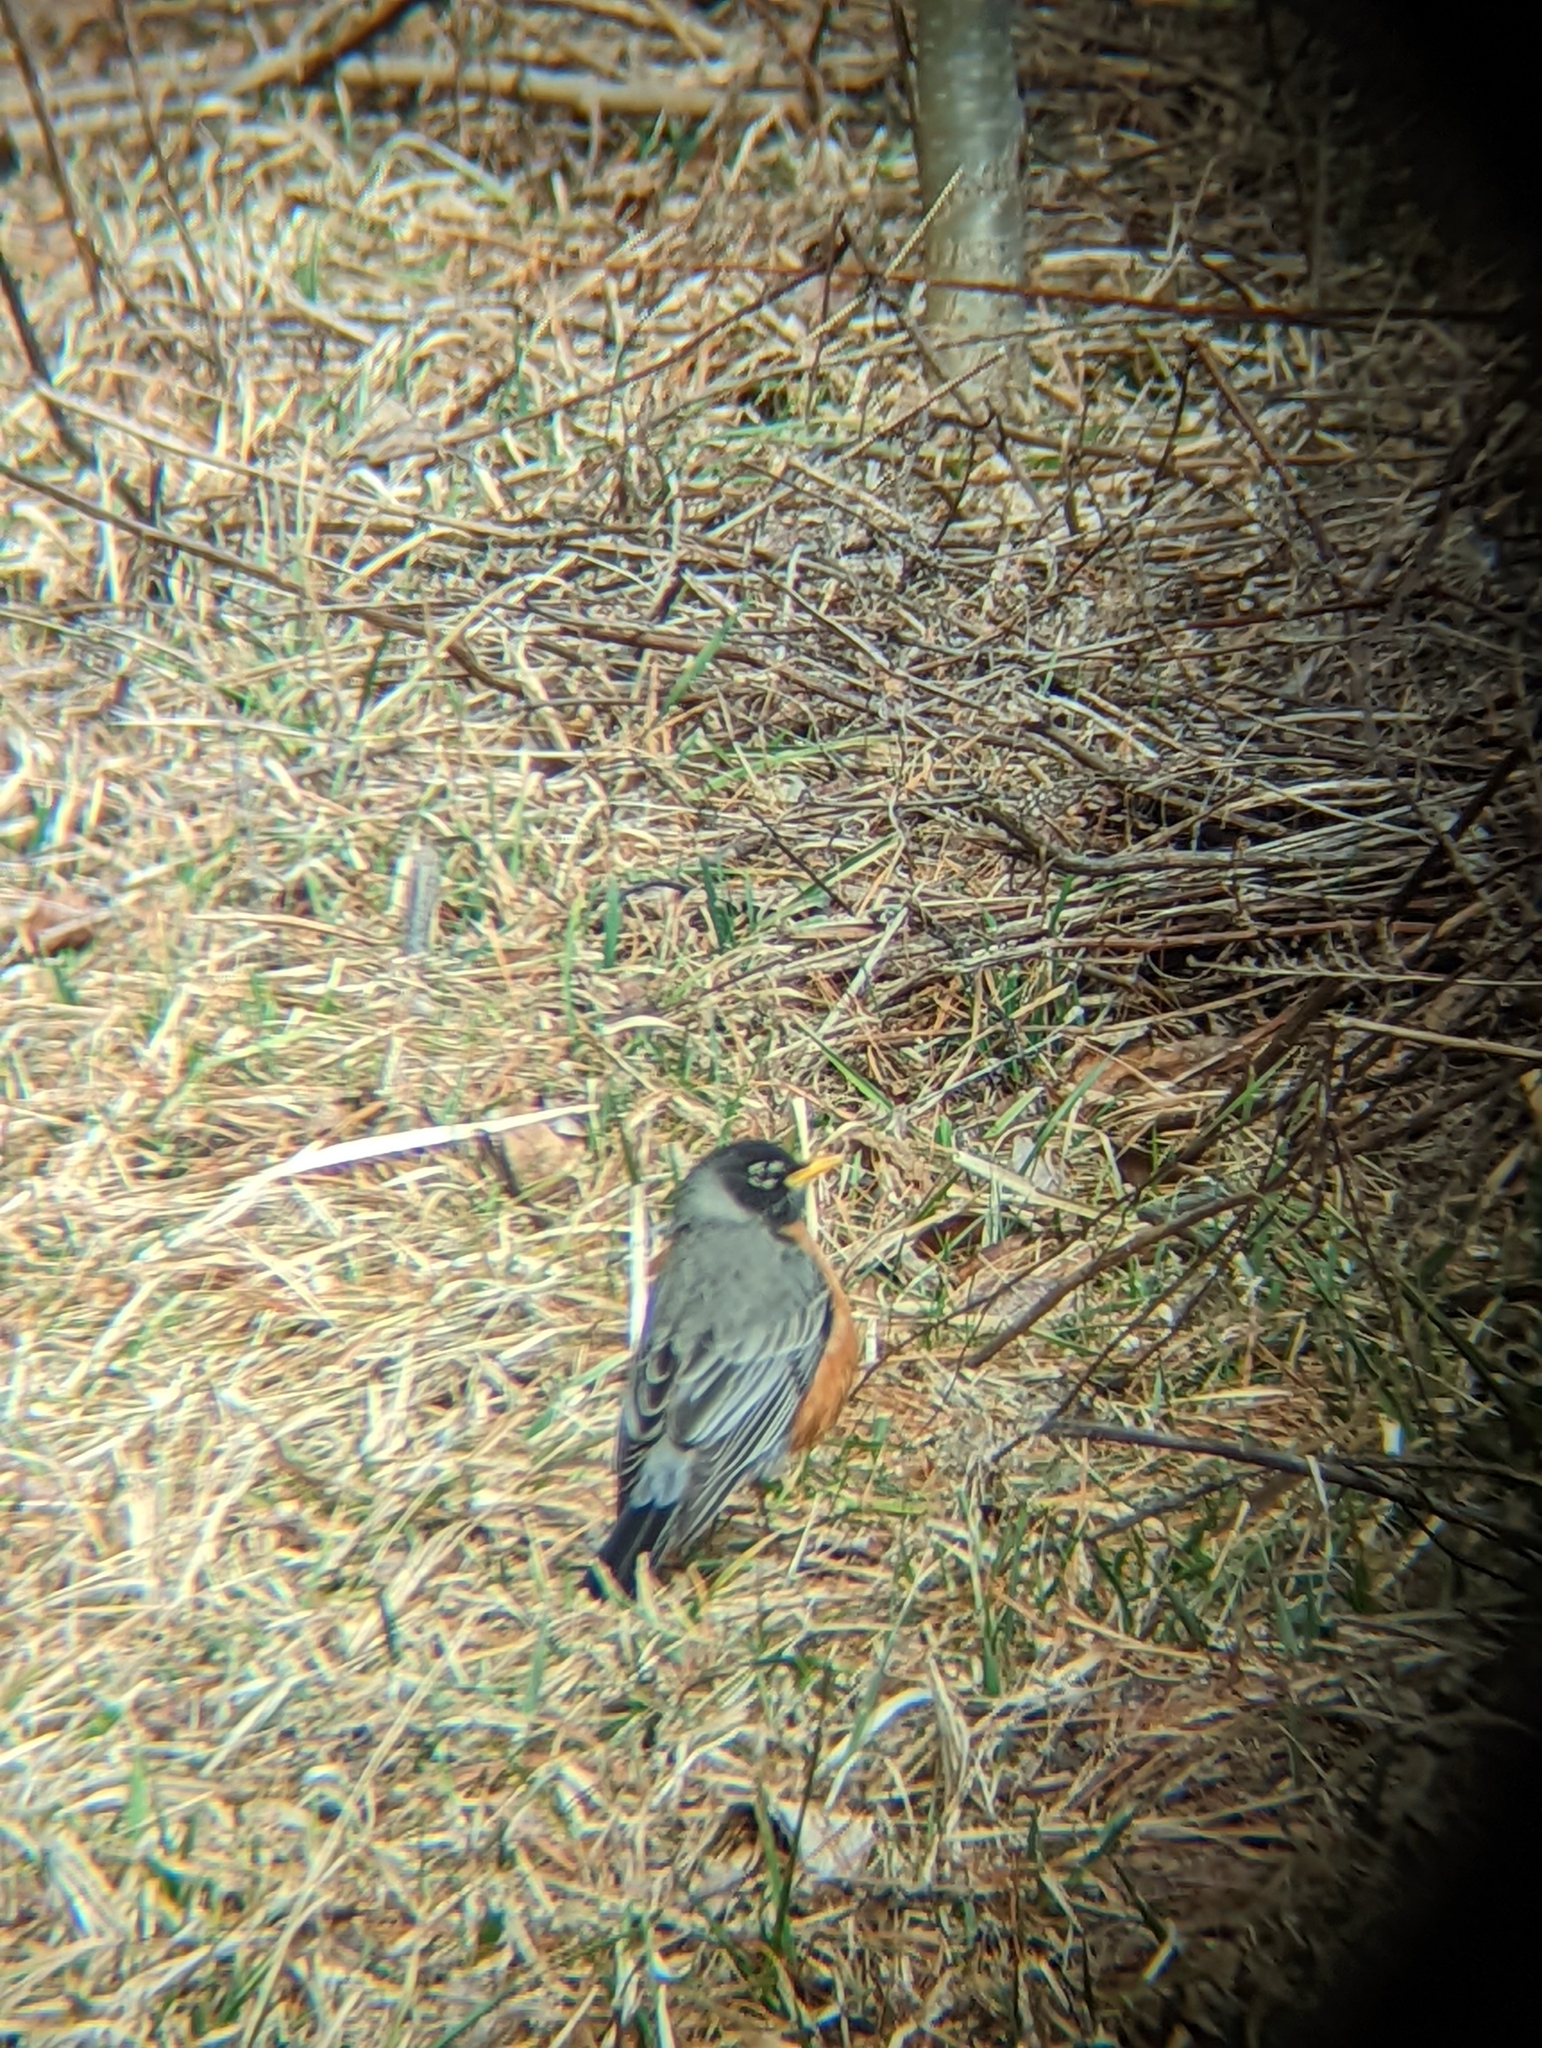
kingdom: Animalia
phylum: Chordata
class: Aves
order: Passeriformes
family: Turdidae
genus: Turdus
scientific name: Turdus migratorius
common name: American robin
